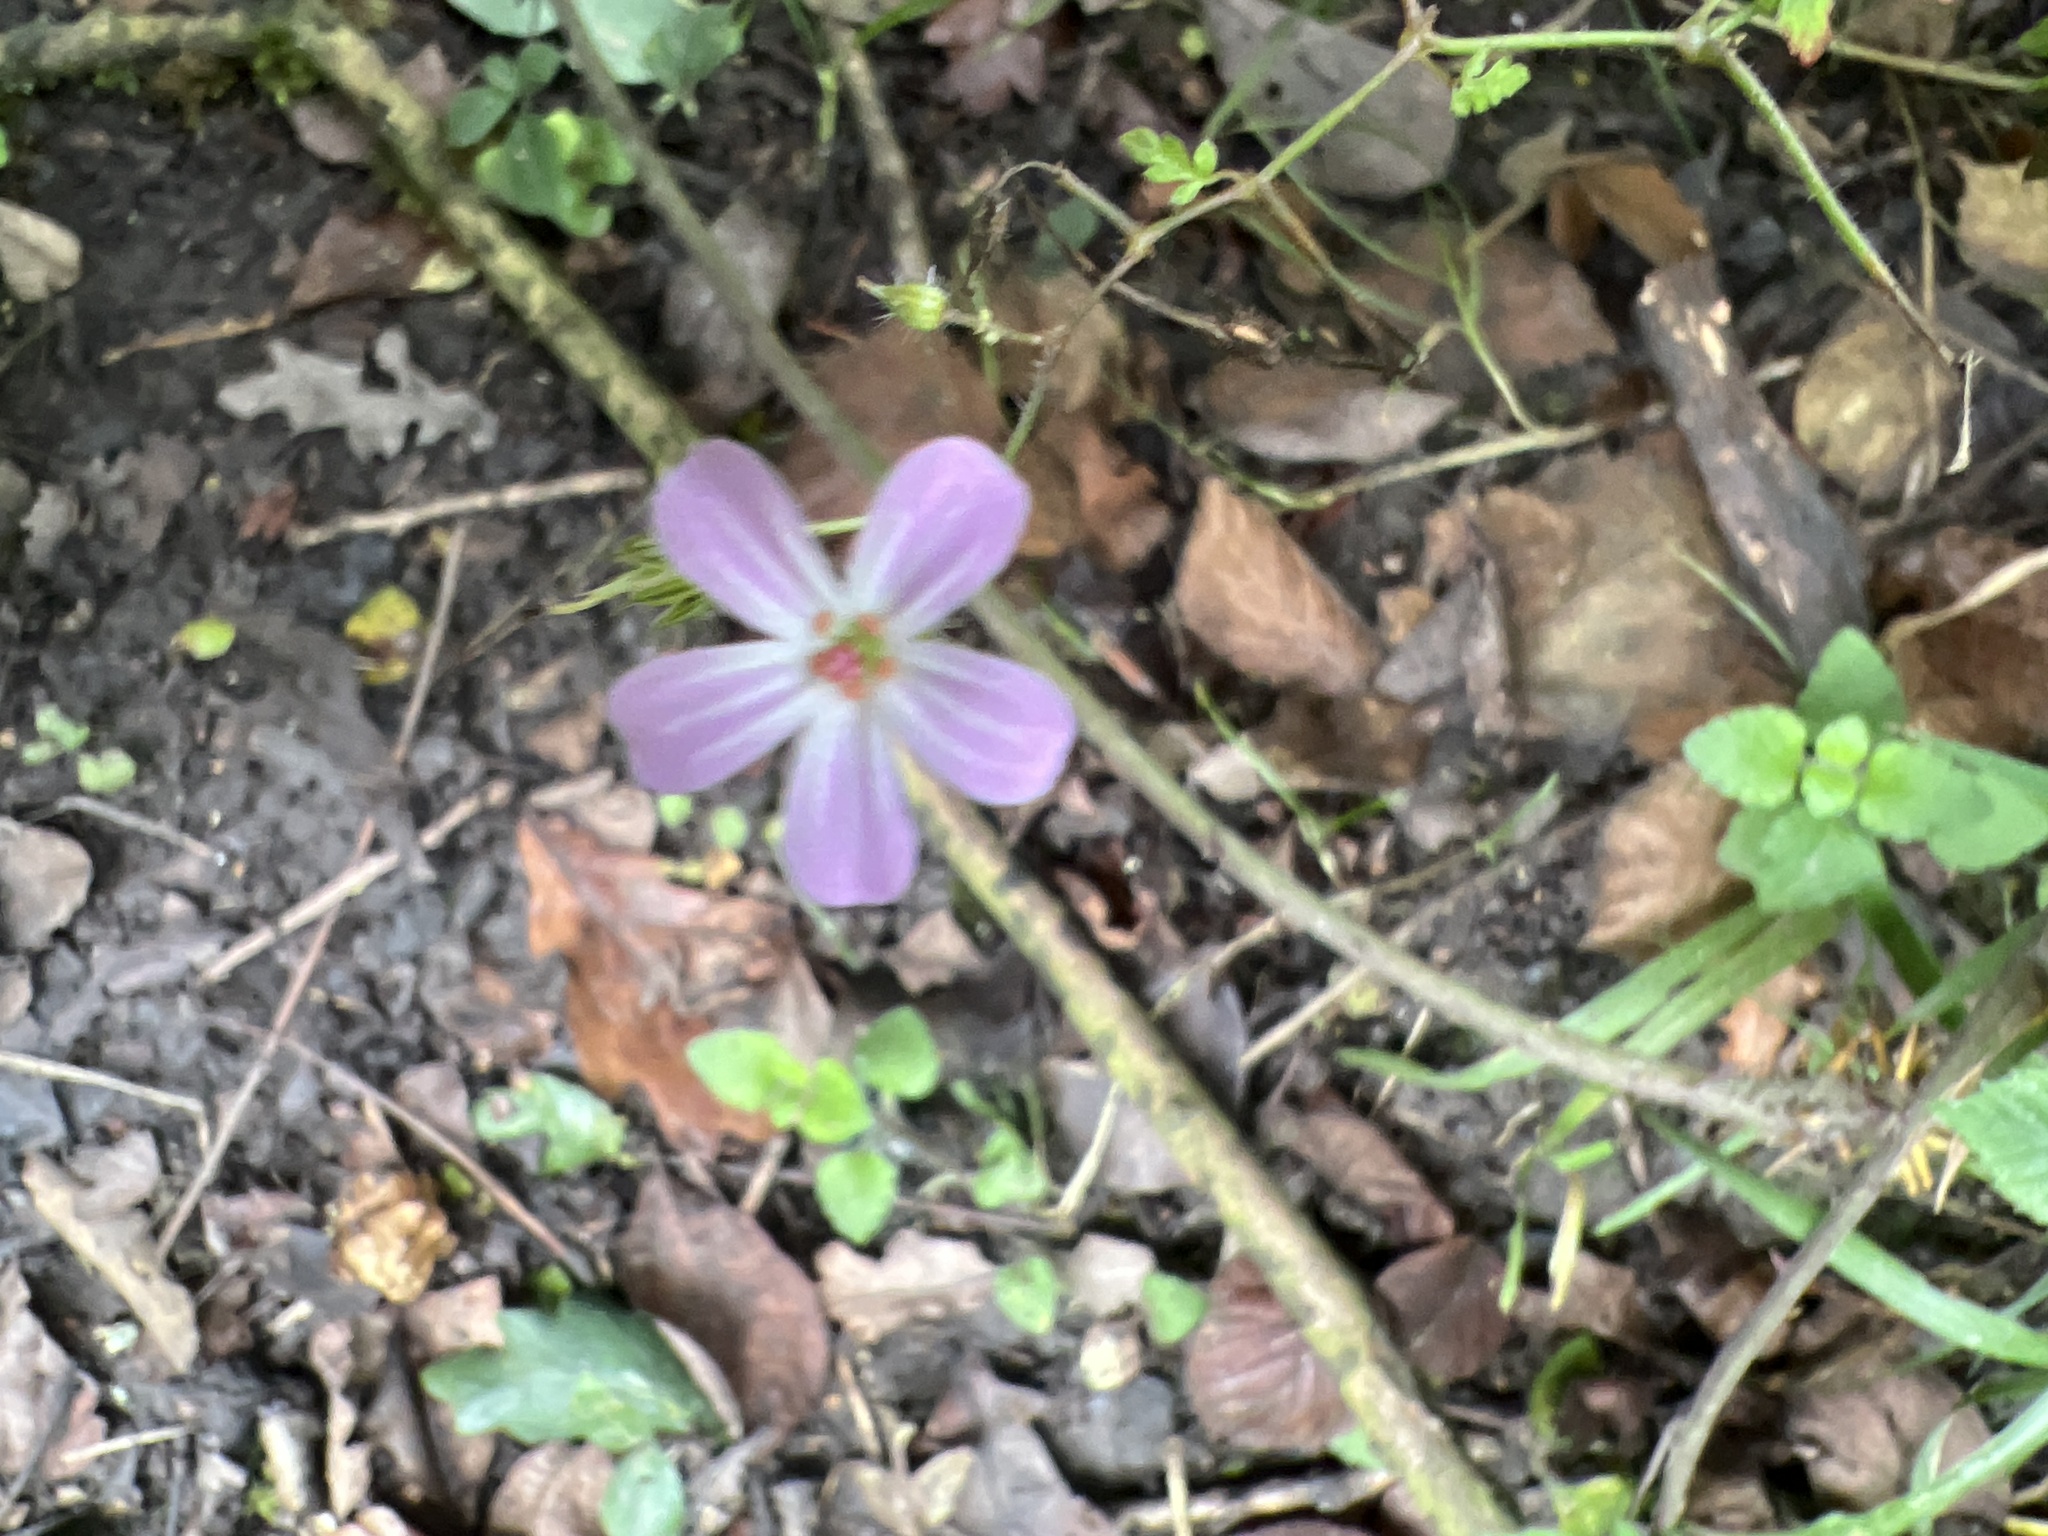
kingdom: Plantae
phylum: Tracheophyta
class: Magnoliopsida
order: Geraniales
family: Geraniaceae
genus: Geranium
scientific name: Geranium robertianum
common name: Herb-robert
